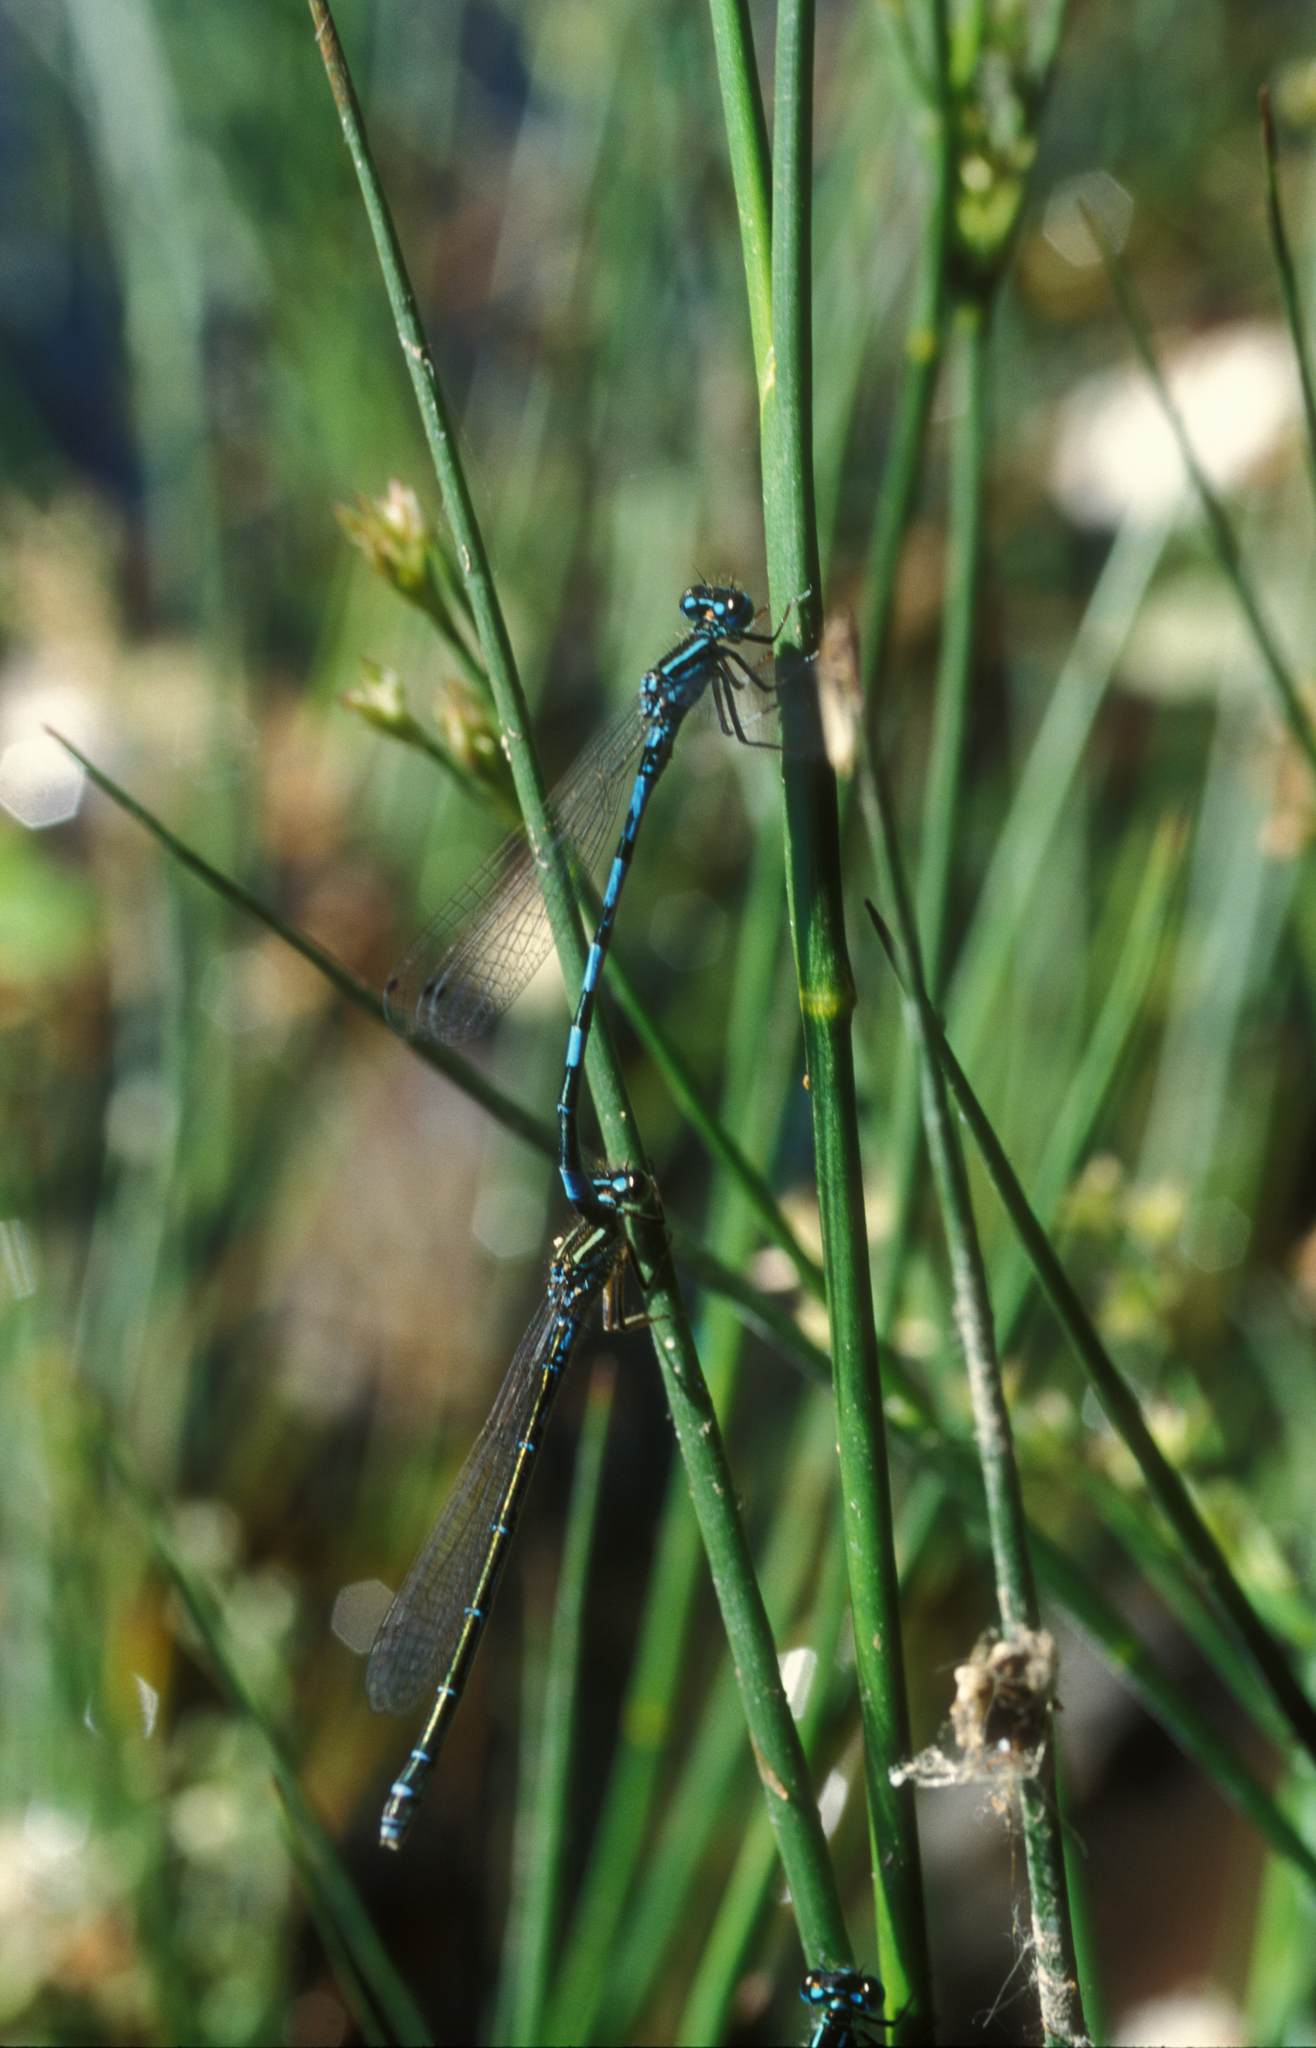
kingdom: Animalia
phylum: Arthropoda
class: Insecta
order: Odonata
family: Coenagrionidae
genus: Coenagrion
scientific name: Coenagrion mercuriale
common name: Southern damselfly
